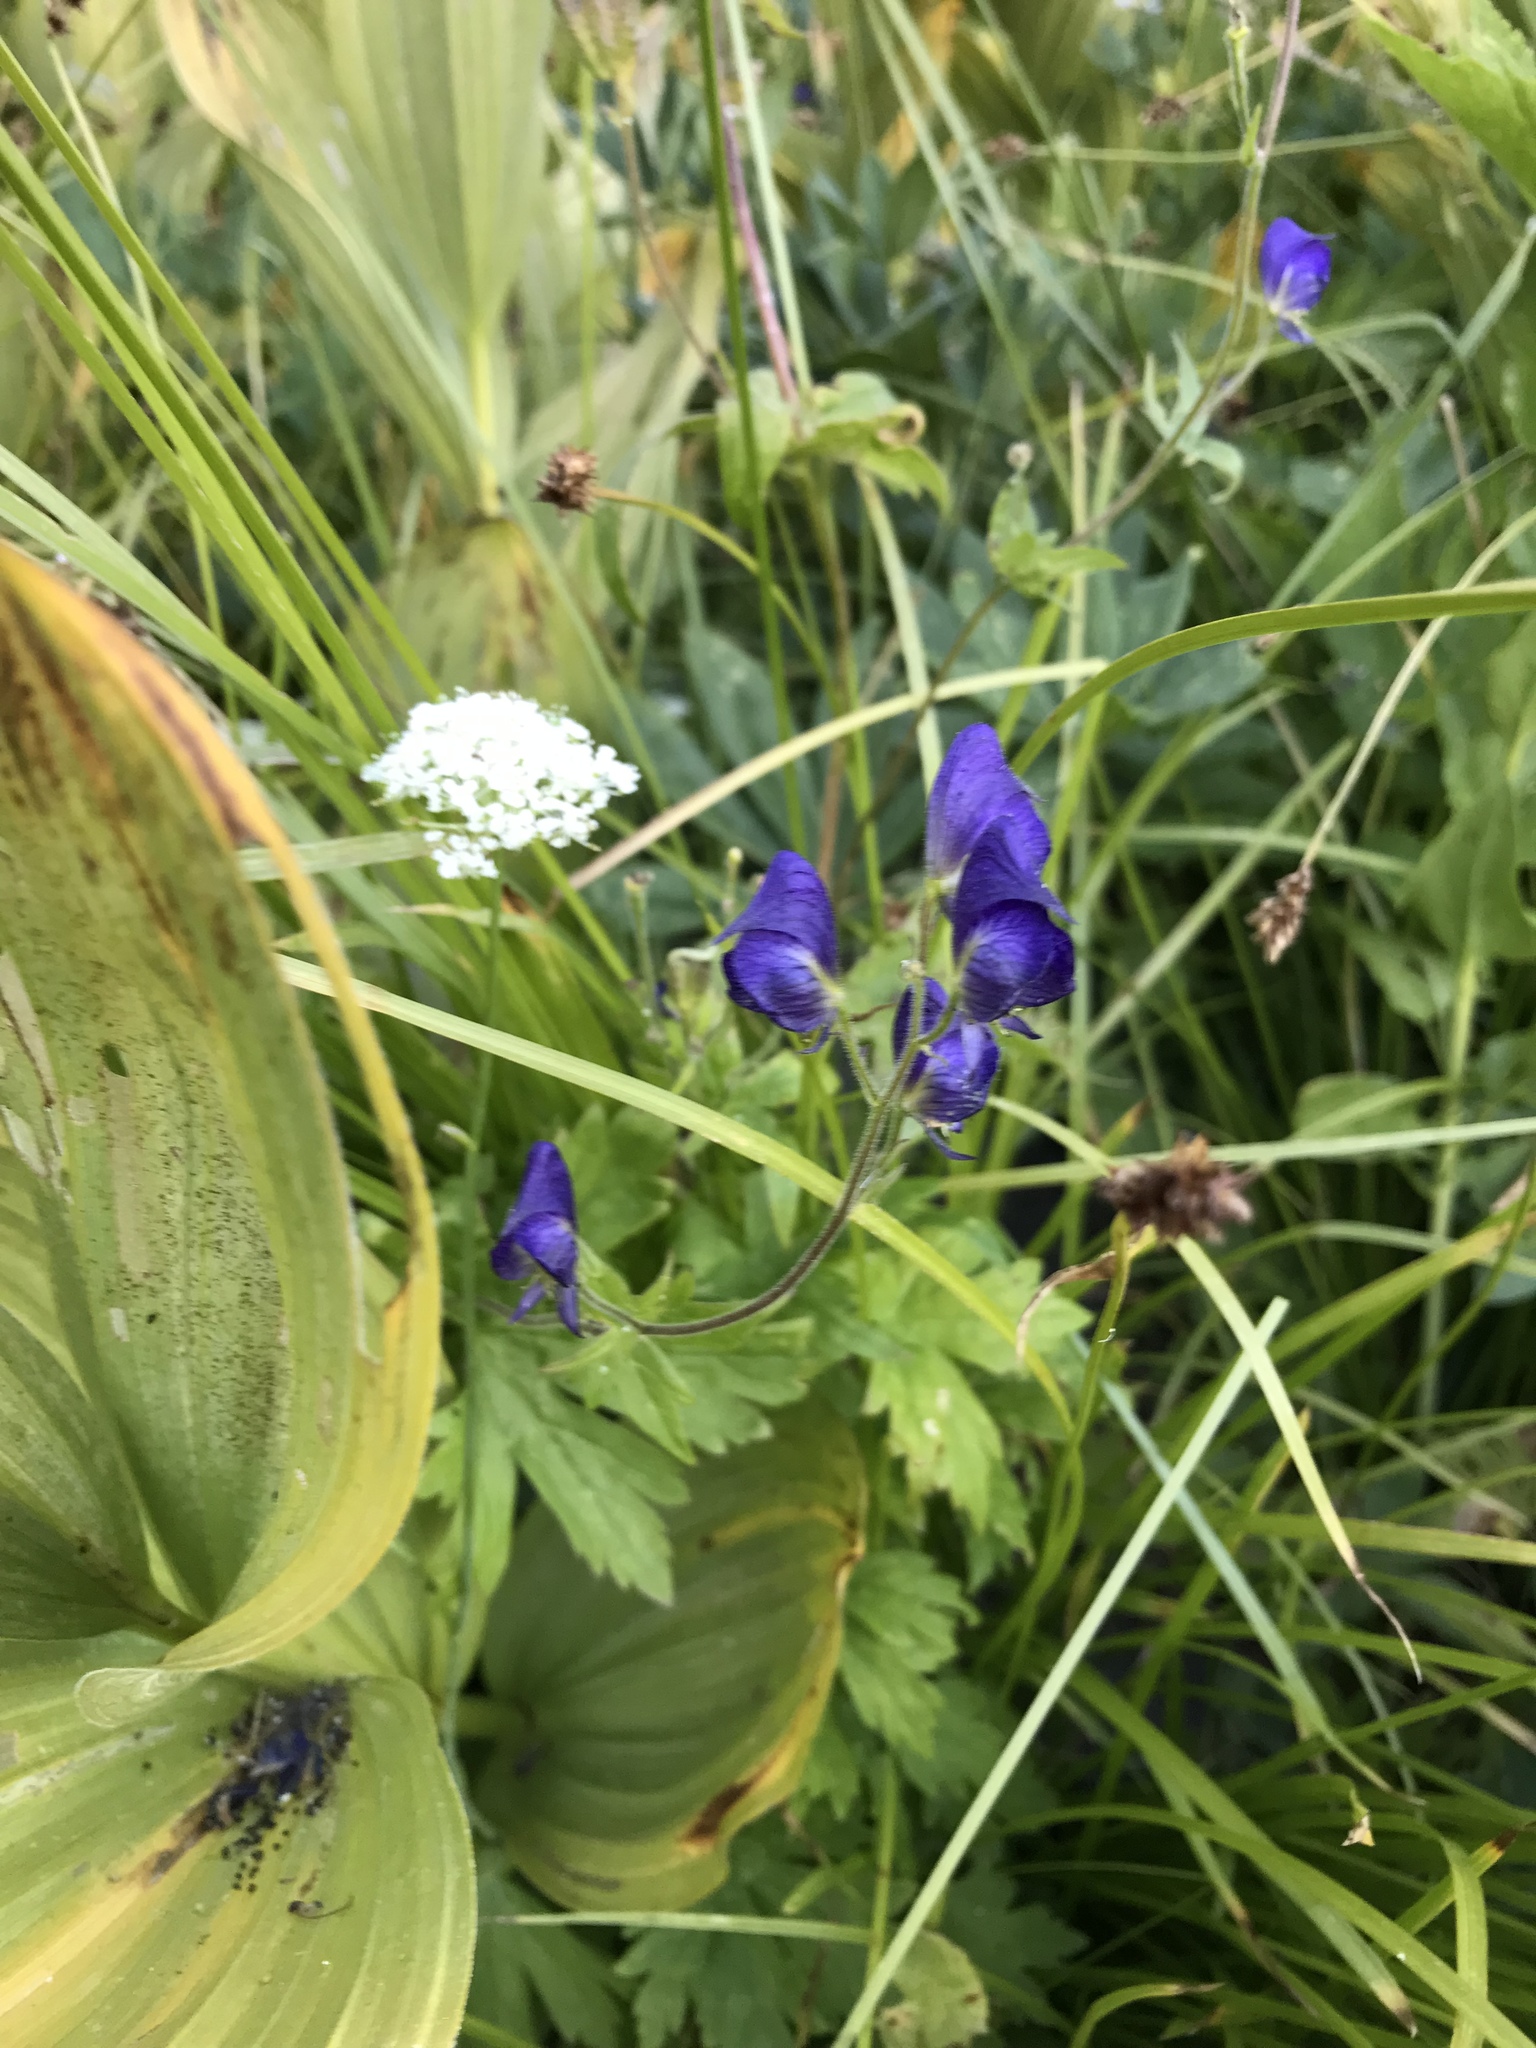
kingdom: Plantae
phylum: Tracheophyta
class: Magnoliopsida
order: Ranunculales
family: Ranunculaceae
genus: Aconitum
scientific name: Aconitum columbianum
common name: Columbia aconite
